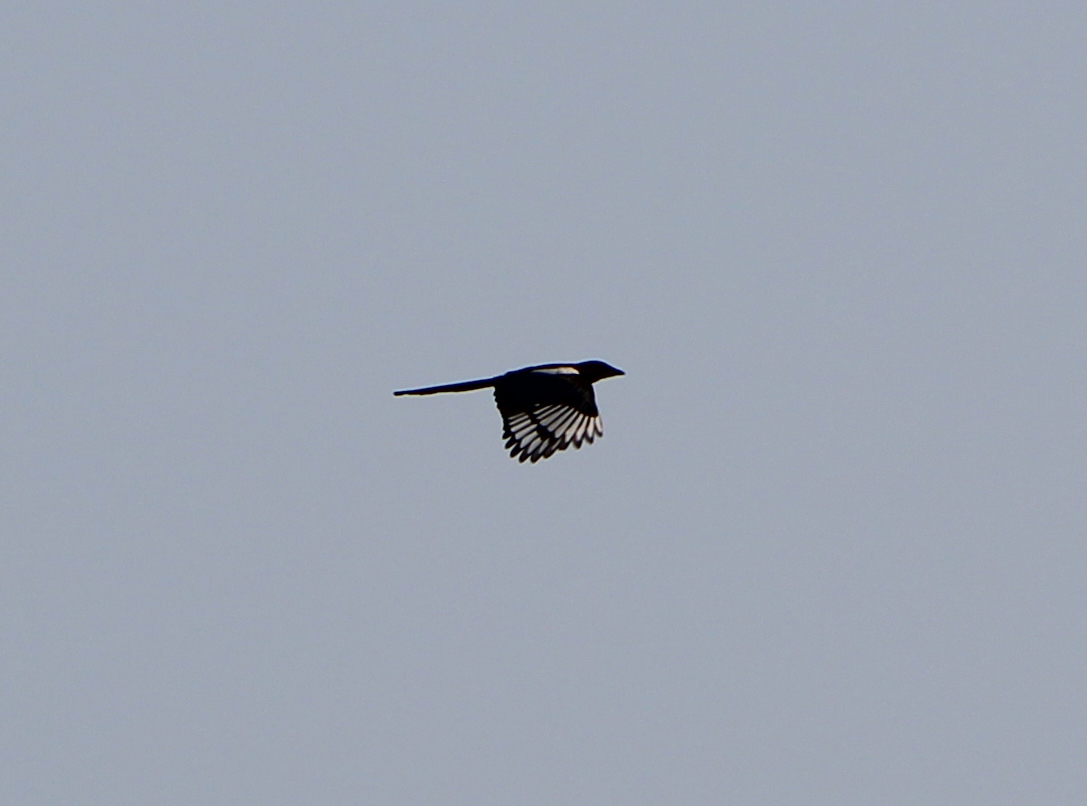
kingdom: Animalia
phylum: Chordata
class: Aves
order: Passeriformes
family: Corvidae
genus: Pica
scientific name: Pica serica
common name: Oriental magpie
